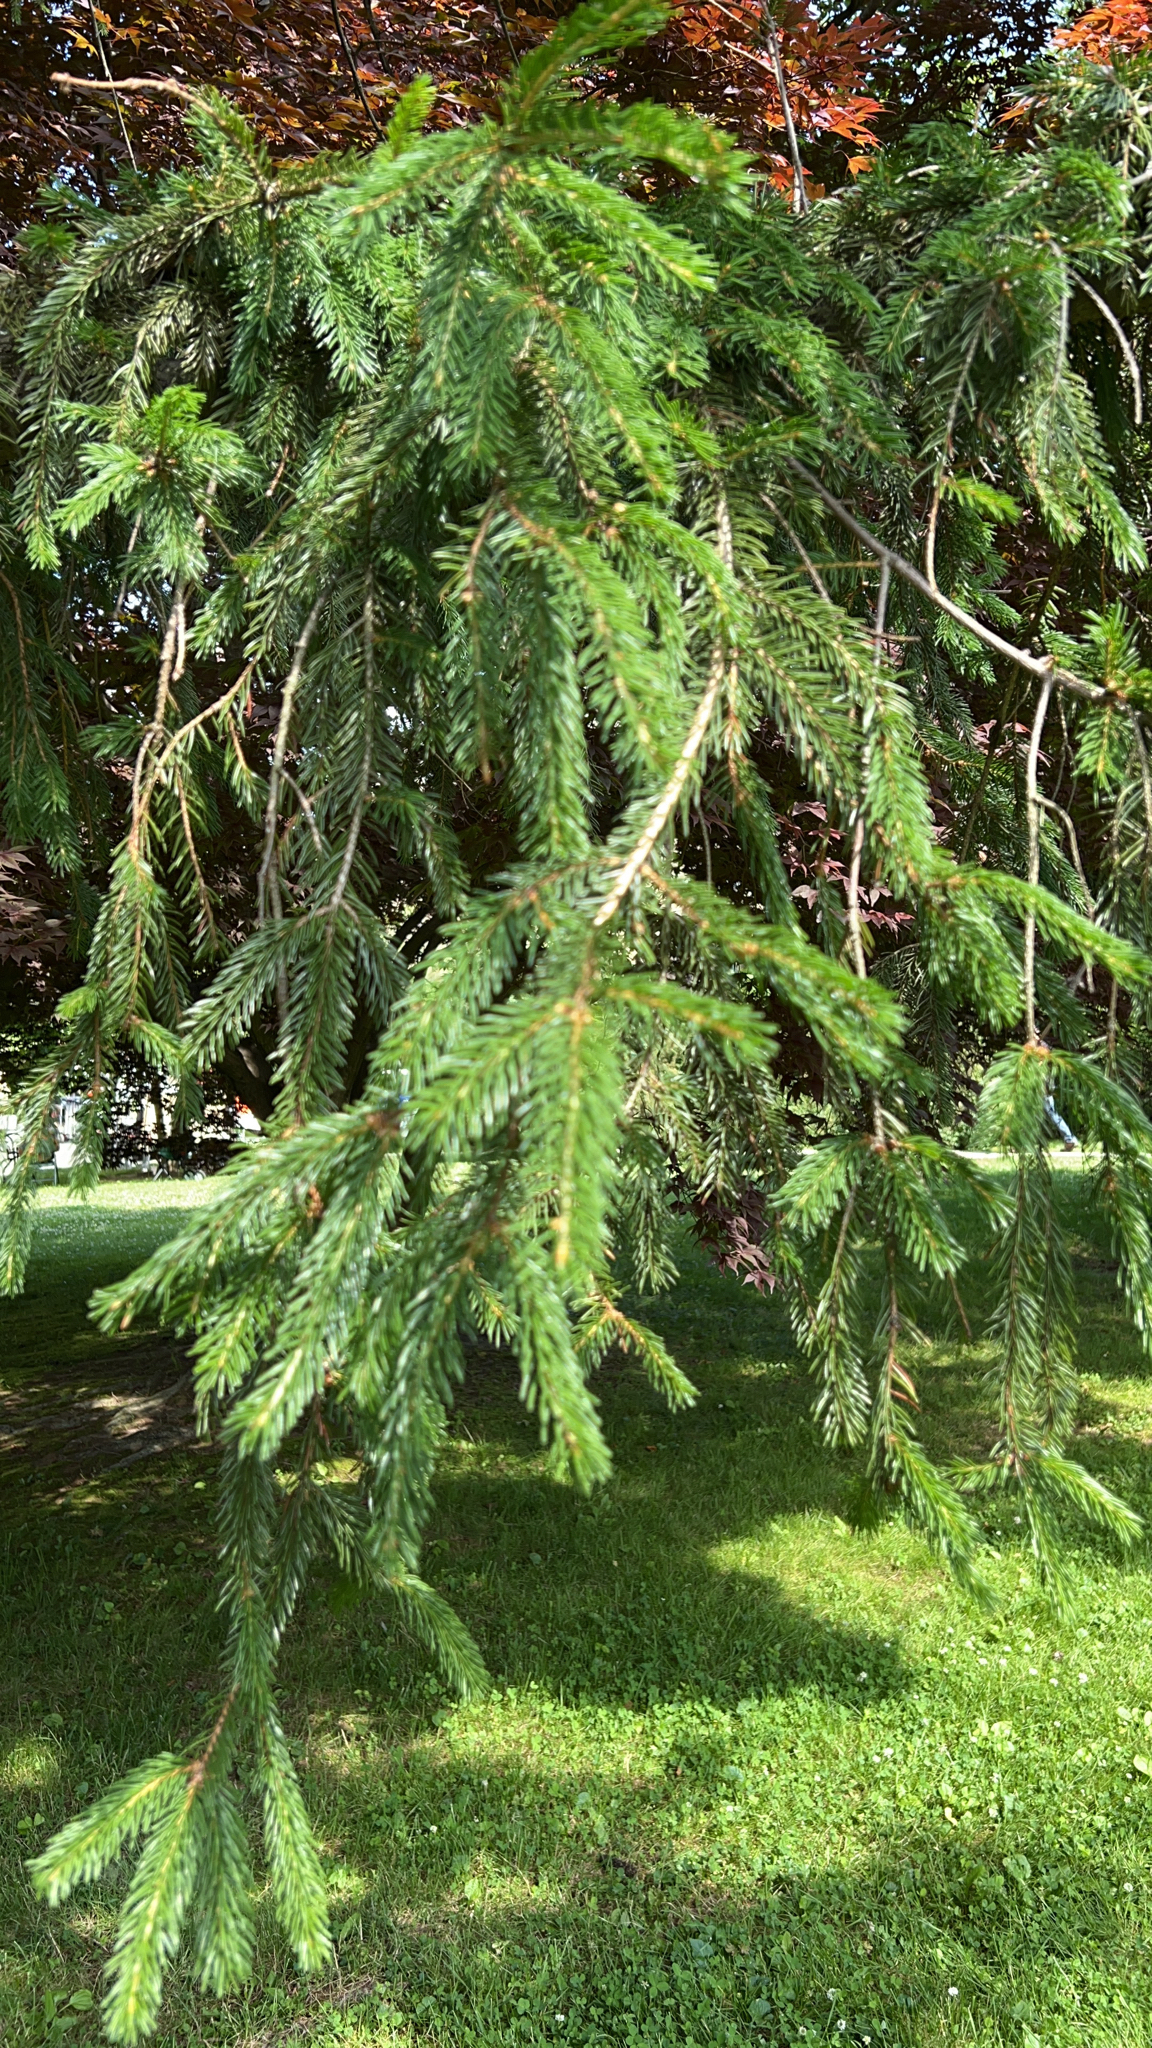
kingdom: Plantae
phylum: Tracheophyta
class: Pinopsida
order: Pinales
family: Pinaceae
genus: Picea
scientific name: Picea abies
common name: Norway spruce
